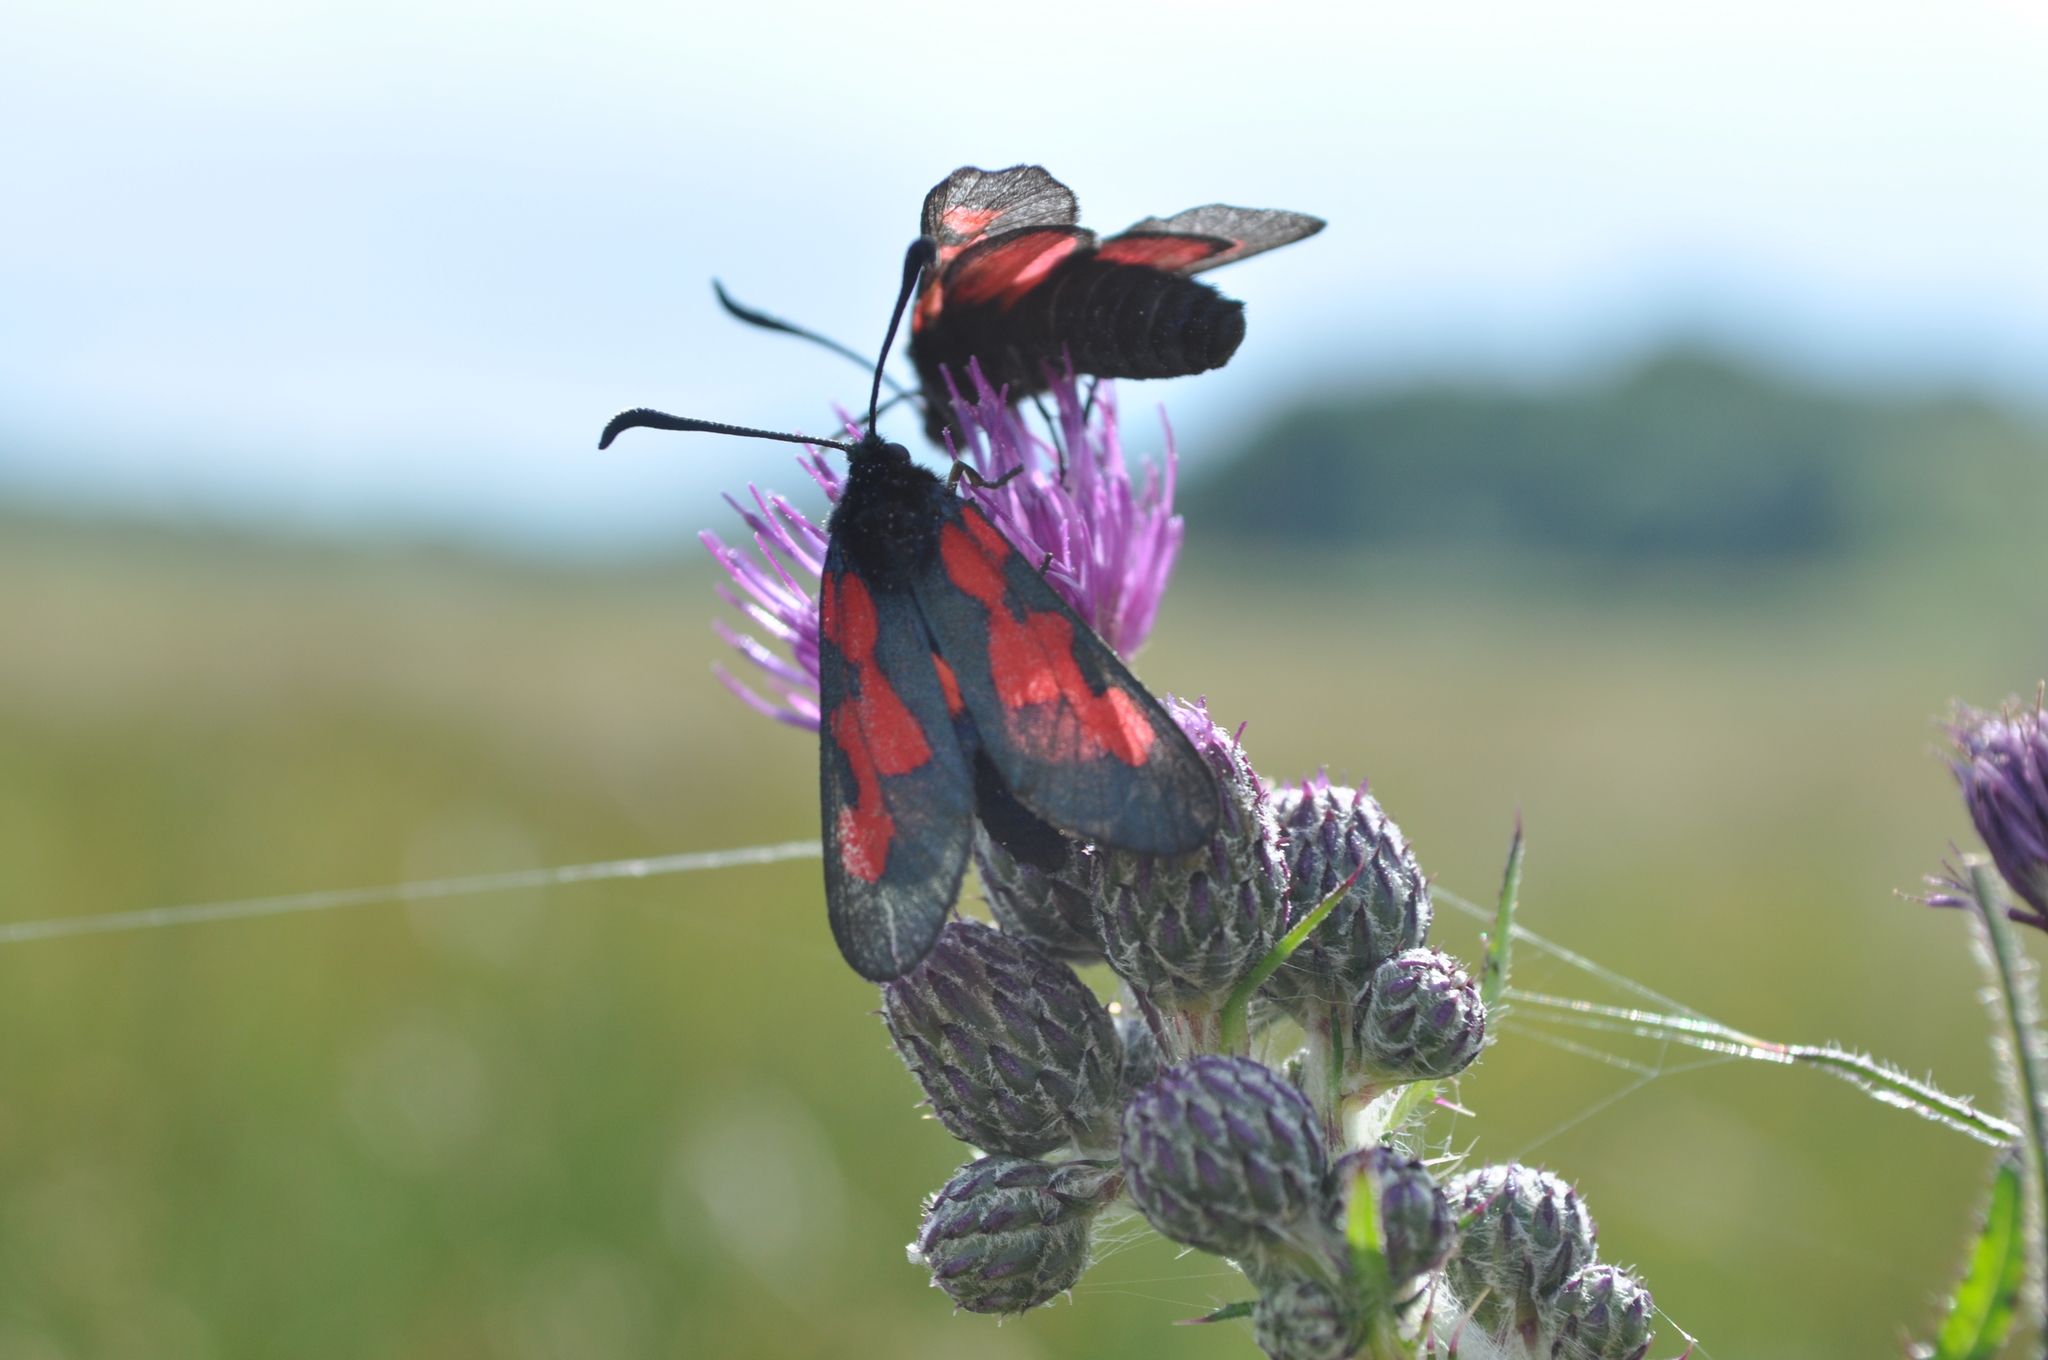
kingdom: Animalia
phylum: Arthropoda
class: Insecta
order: Lepidoptera
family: Zygaenidae
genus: Zygaena
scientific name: Zygaena trifolii
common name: Five-spot burnet
